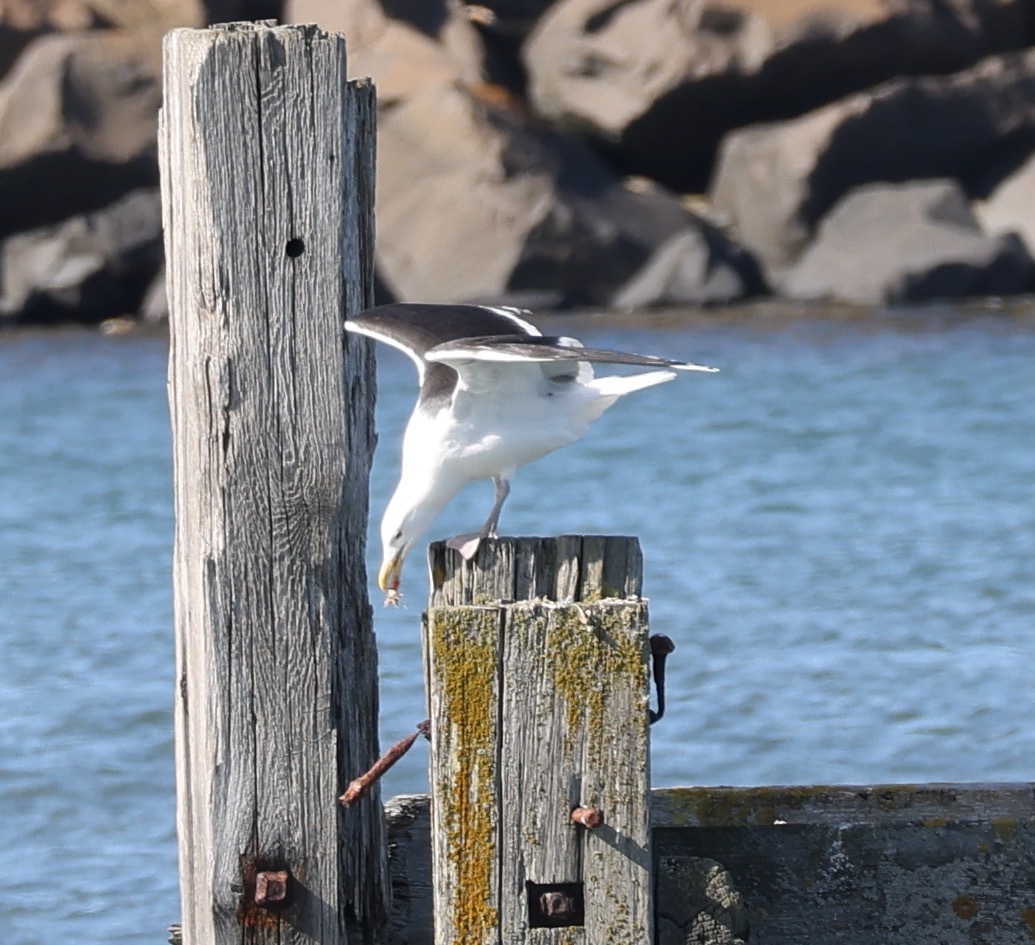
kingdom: Animalia
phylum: Chordata
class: Aves
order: Charadriiformes
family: Laridae
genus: Larus
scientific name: Larus marinus
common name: Great black-backed gull
